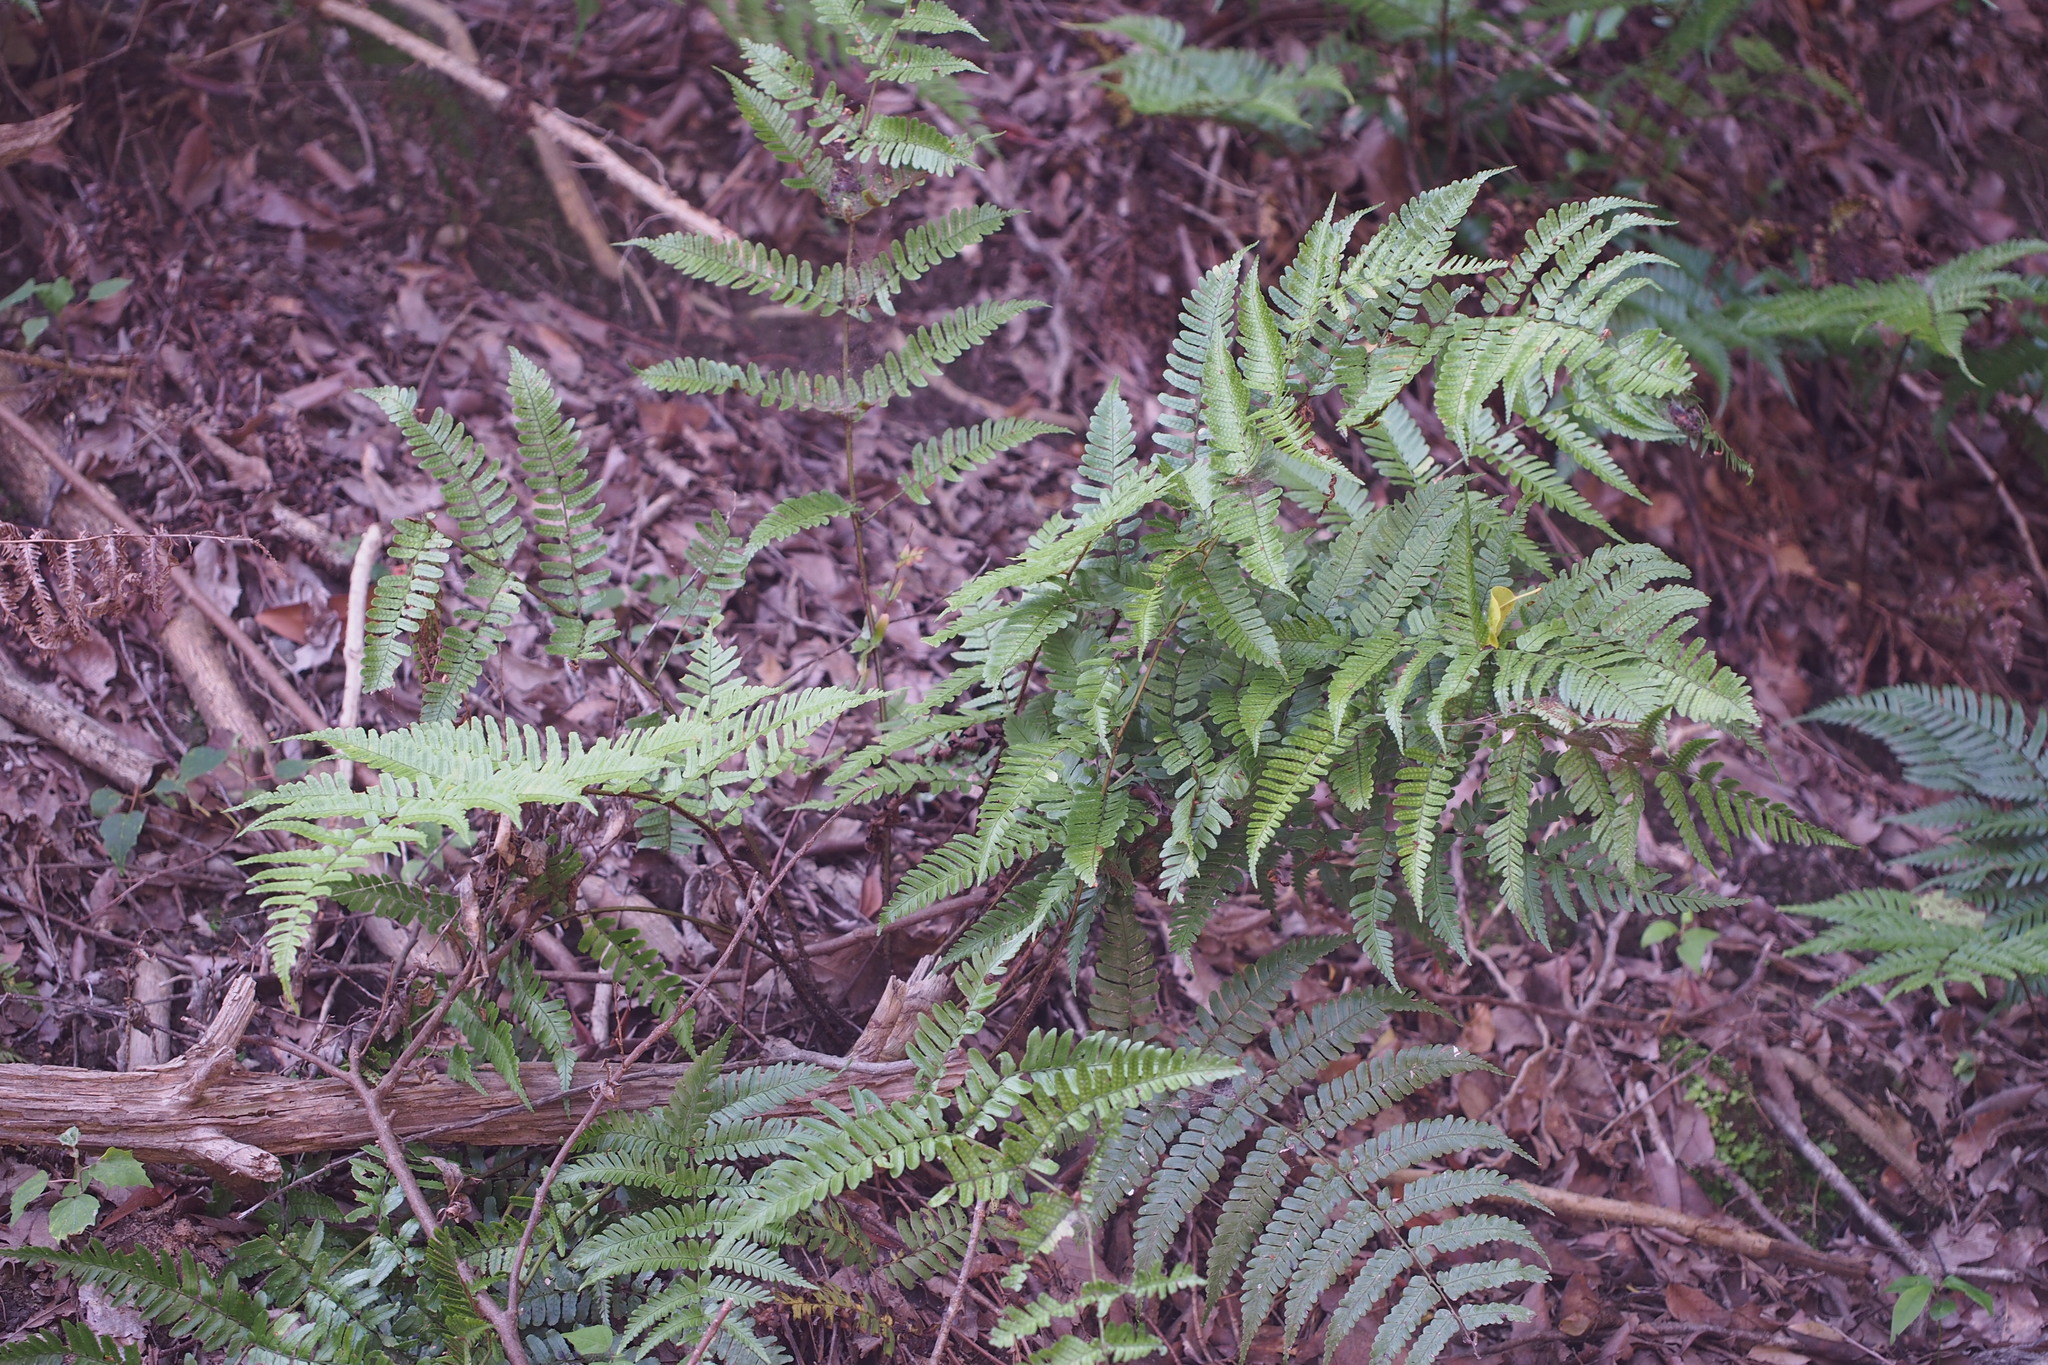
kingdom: Plantae
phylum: Tracheophyta
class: Polypodiopsida
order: Polypodiales
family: Dryopteridaceae
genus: Dryopteris
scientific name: Dryopteris erythrosora
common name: Autumn fern
